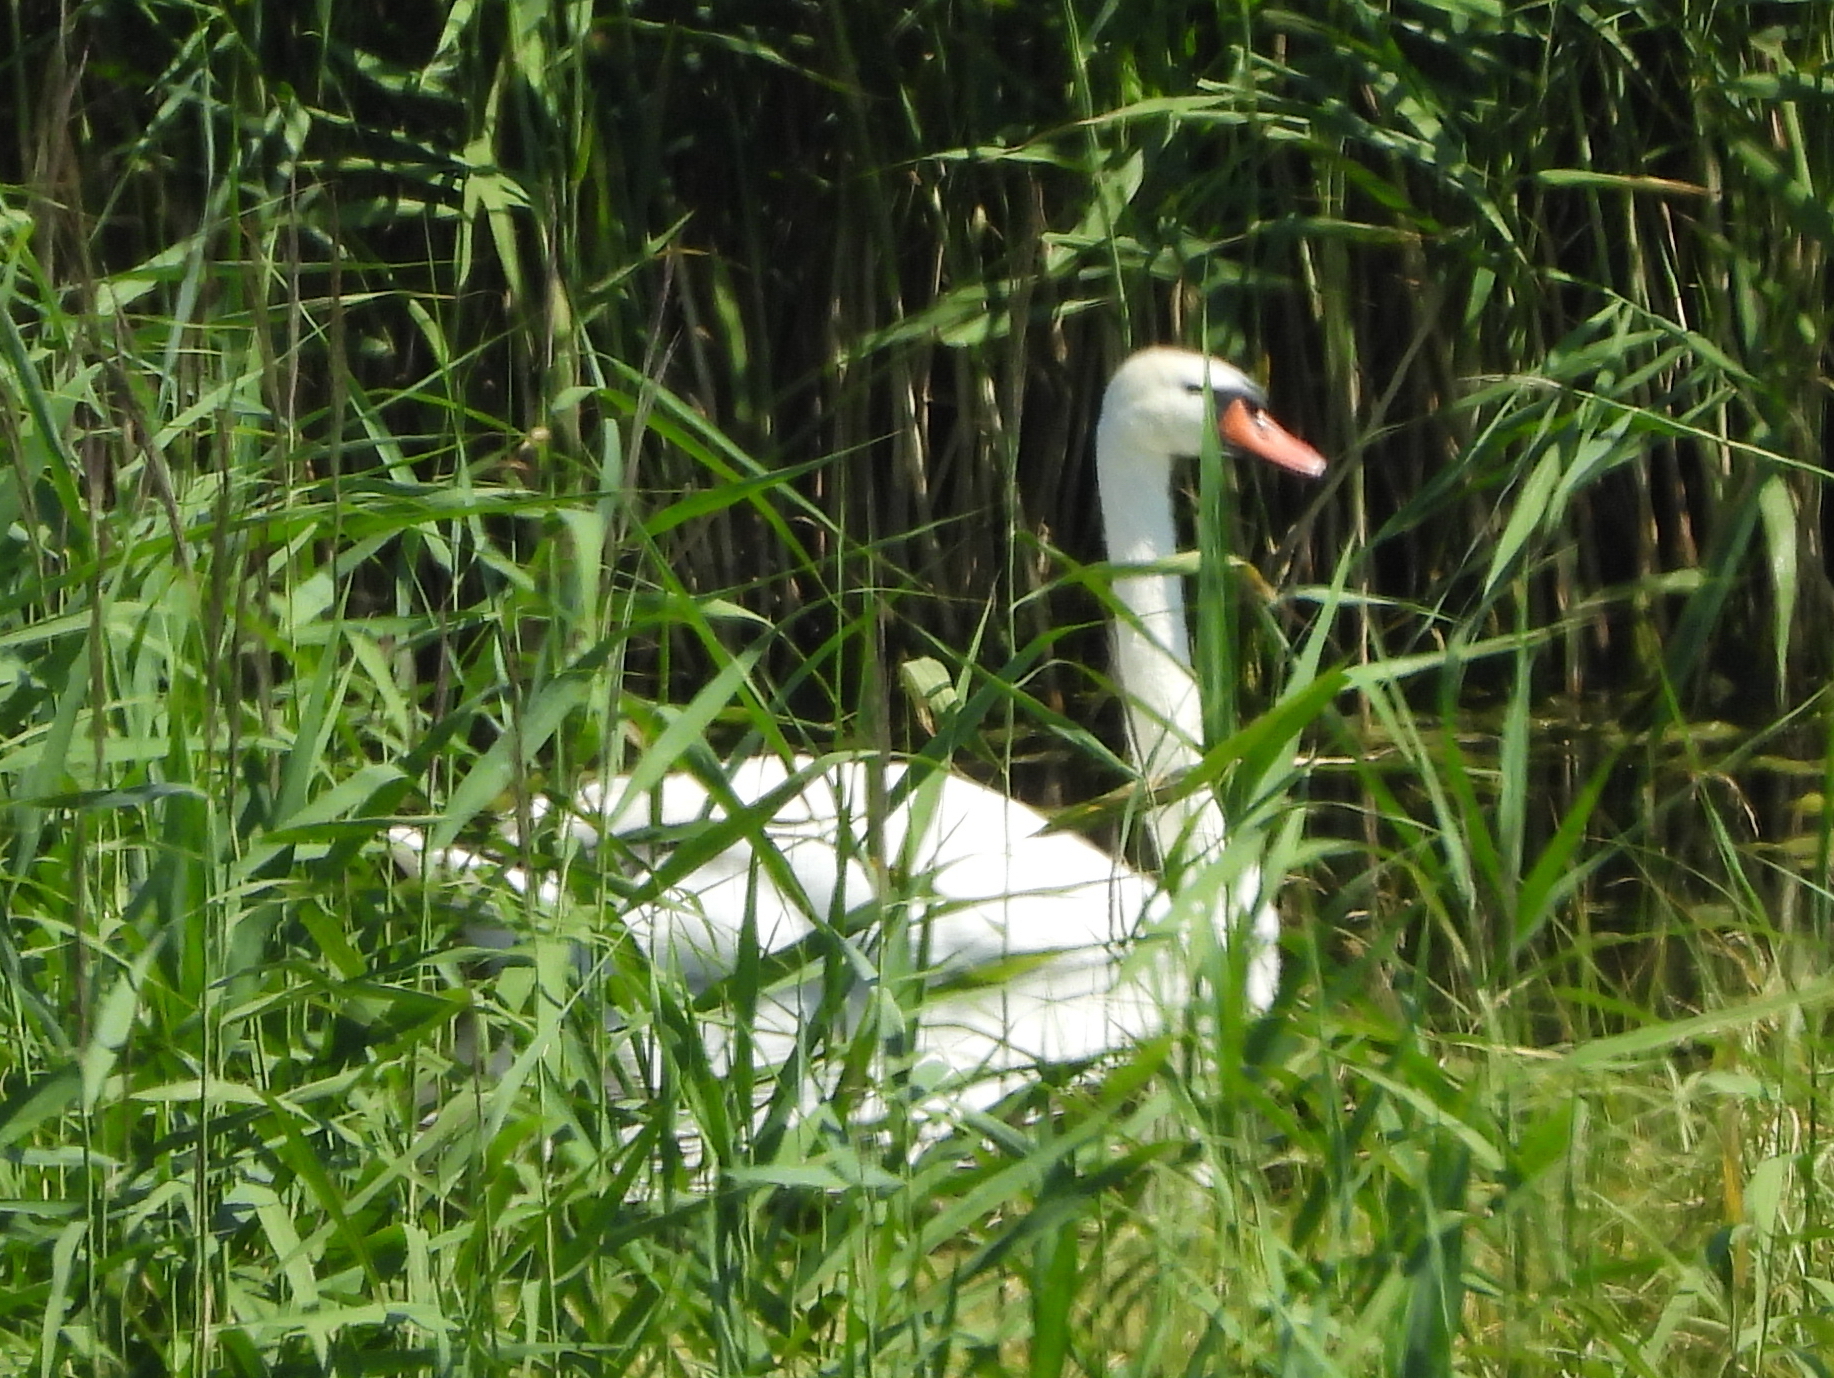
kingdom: Animalia
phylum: Chordata
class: Aves
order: Anseriformes
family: Anatidae
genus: Cygnus
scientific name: Cygnus olor
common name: Mute swan
